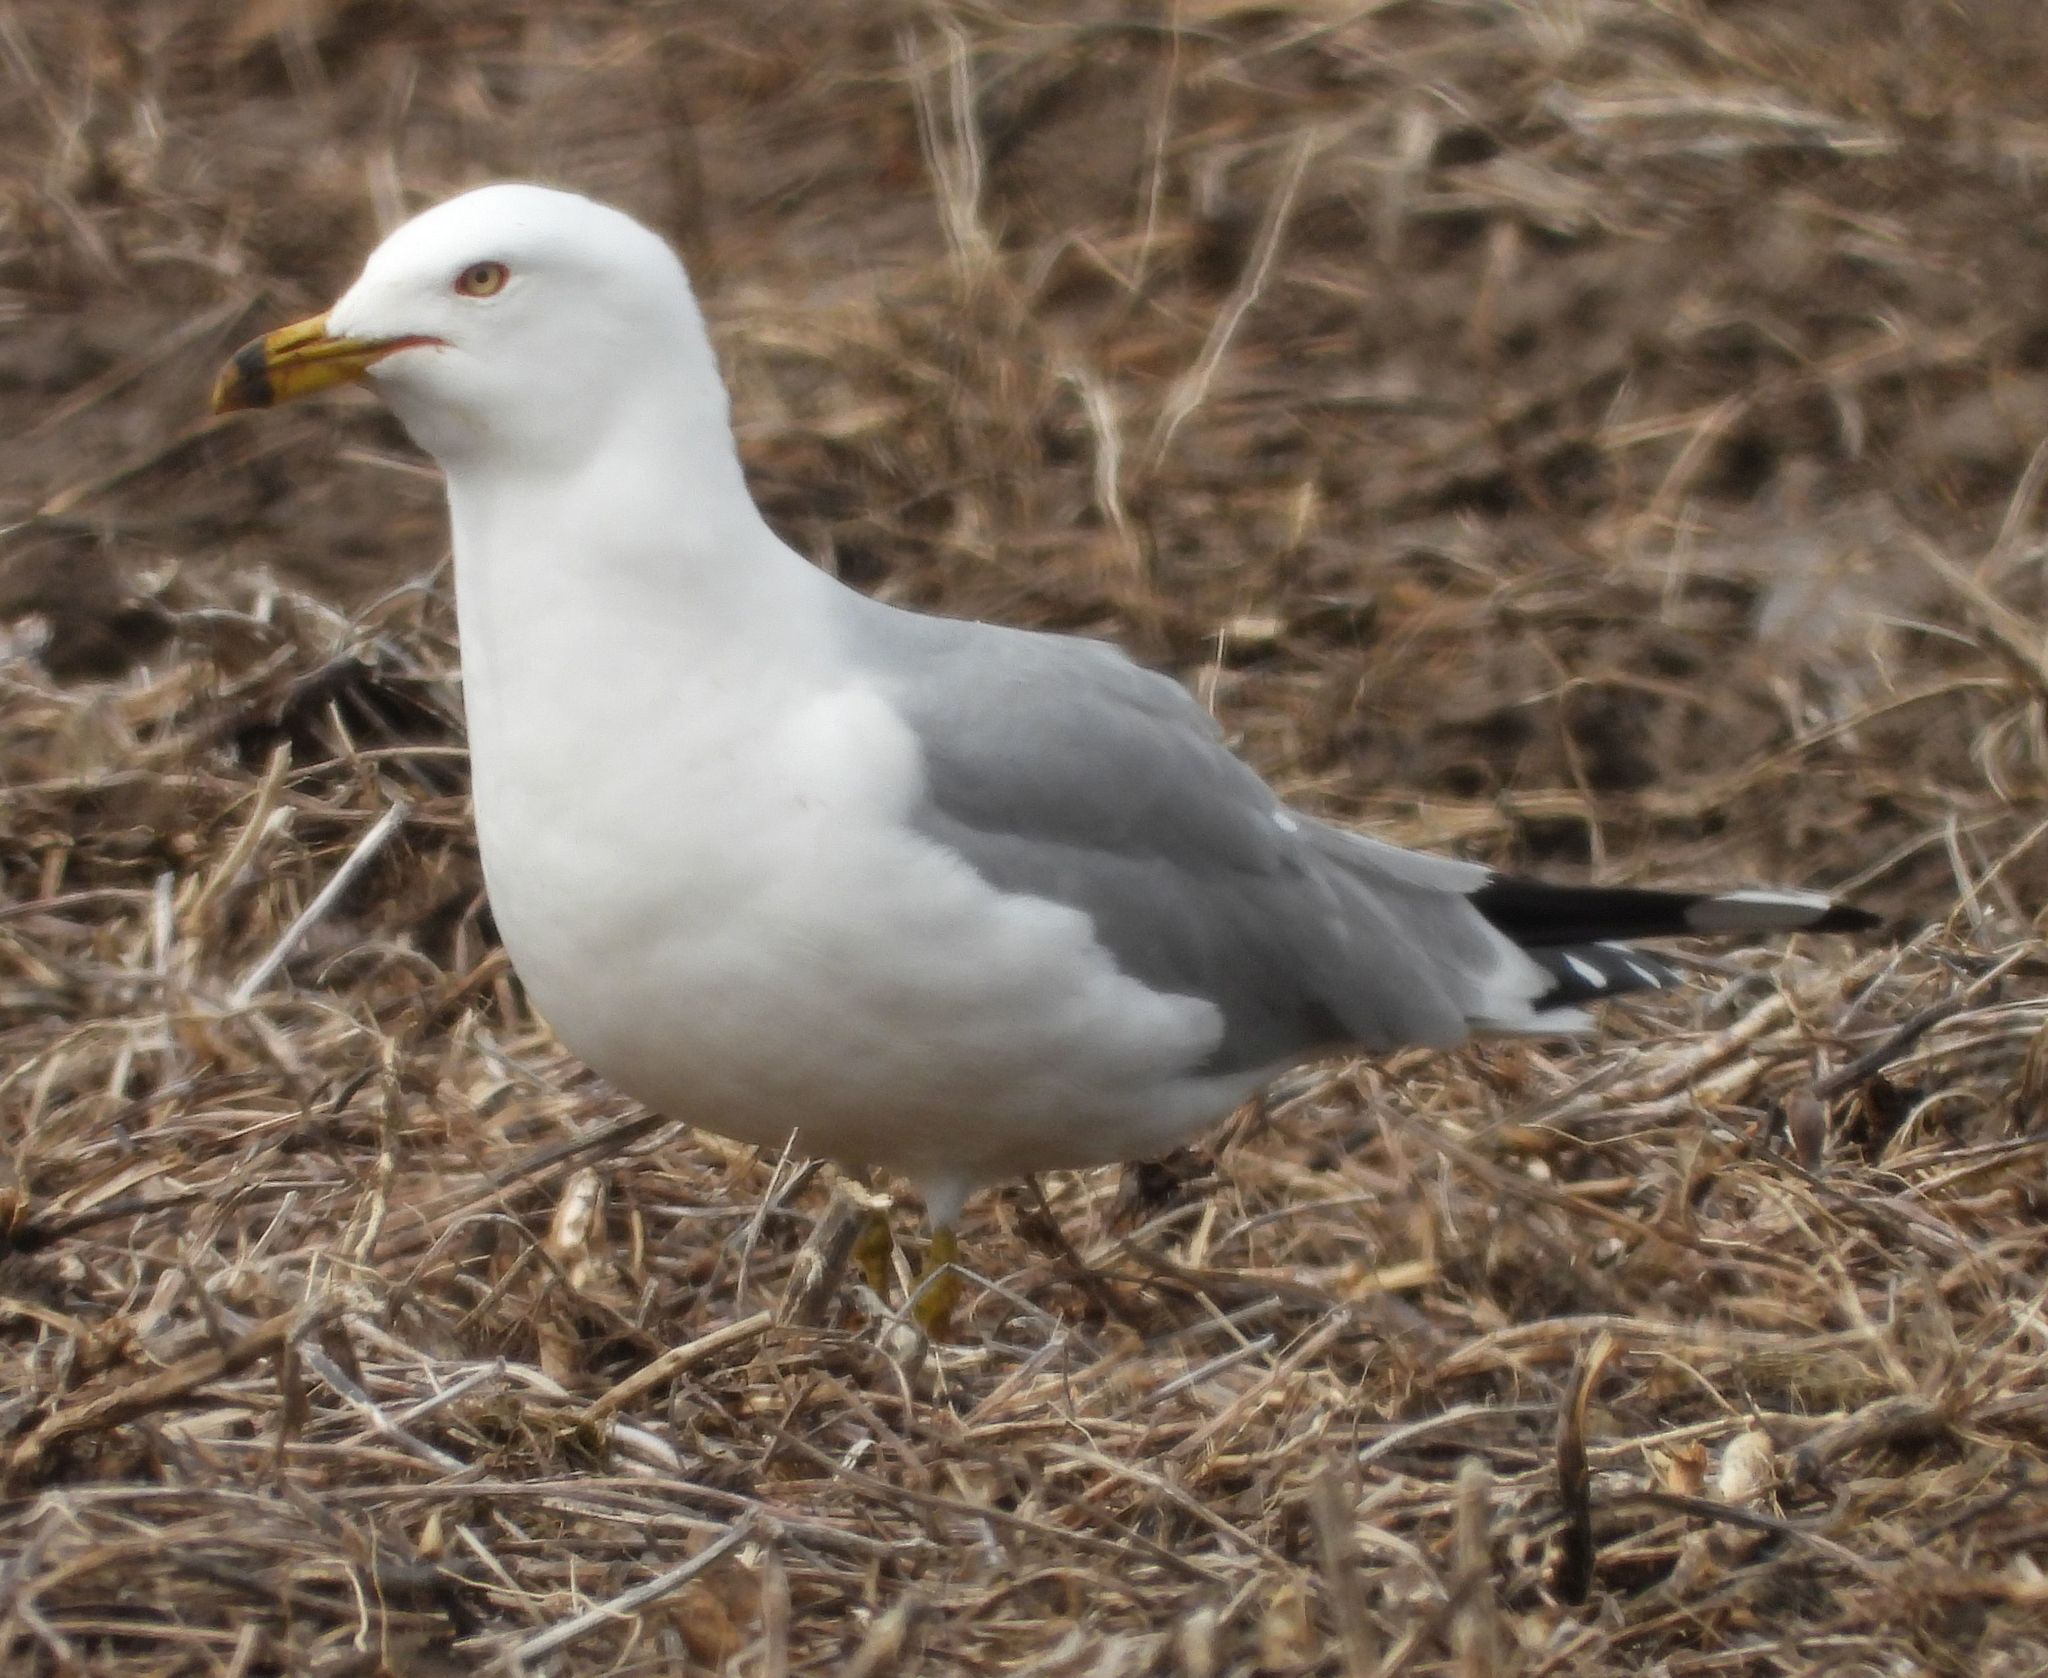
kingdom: Animalia
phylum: Chordata
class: Aves
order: Charadriiformes
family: Laridae
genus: Larus
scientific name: Larus delawarensis
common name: Ring-billed gull
